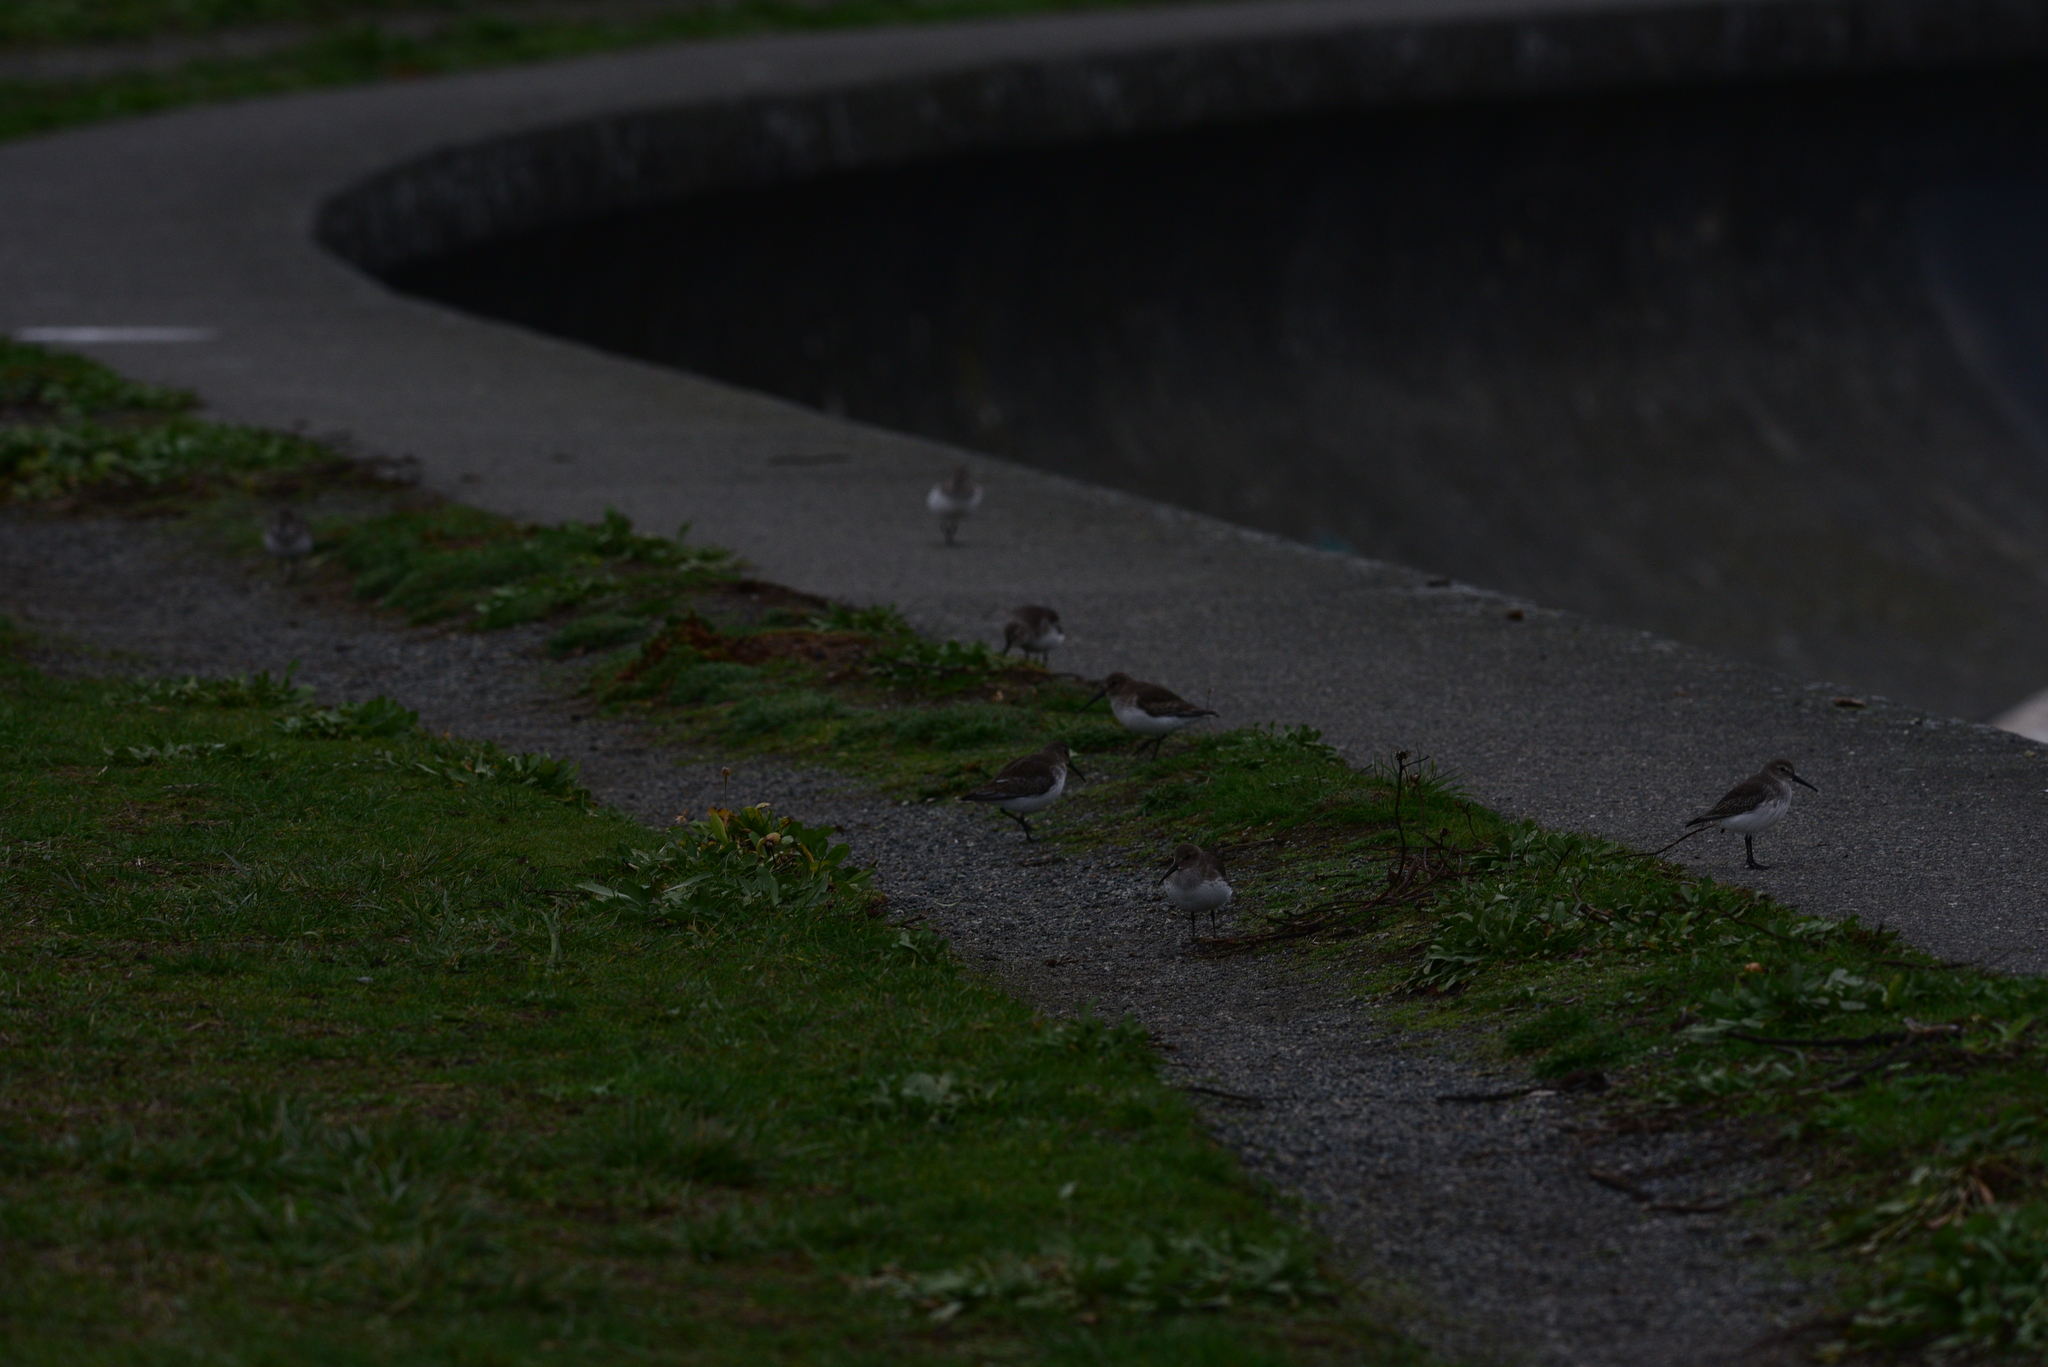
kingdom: Animalia
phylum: Chordata
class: Aves
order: Charadriiformes
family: Scolopacidae
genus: Calidris
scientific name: Calidris alpina
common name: Dunlin
